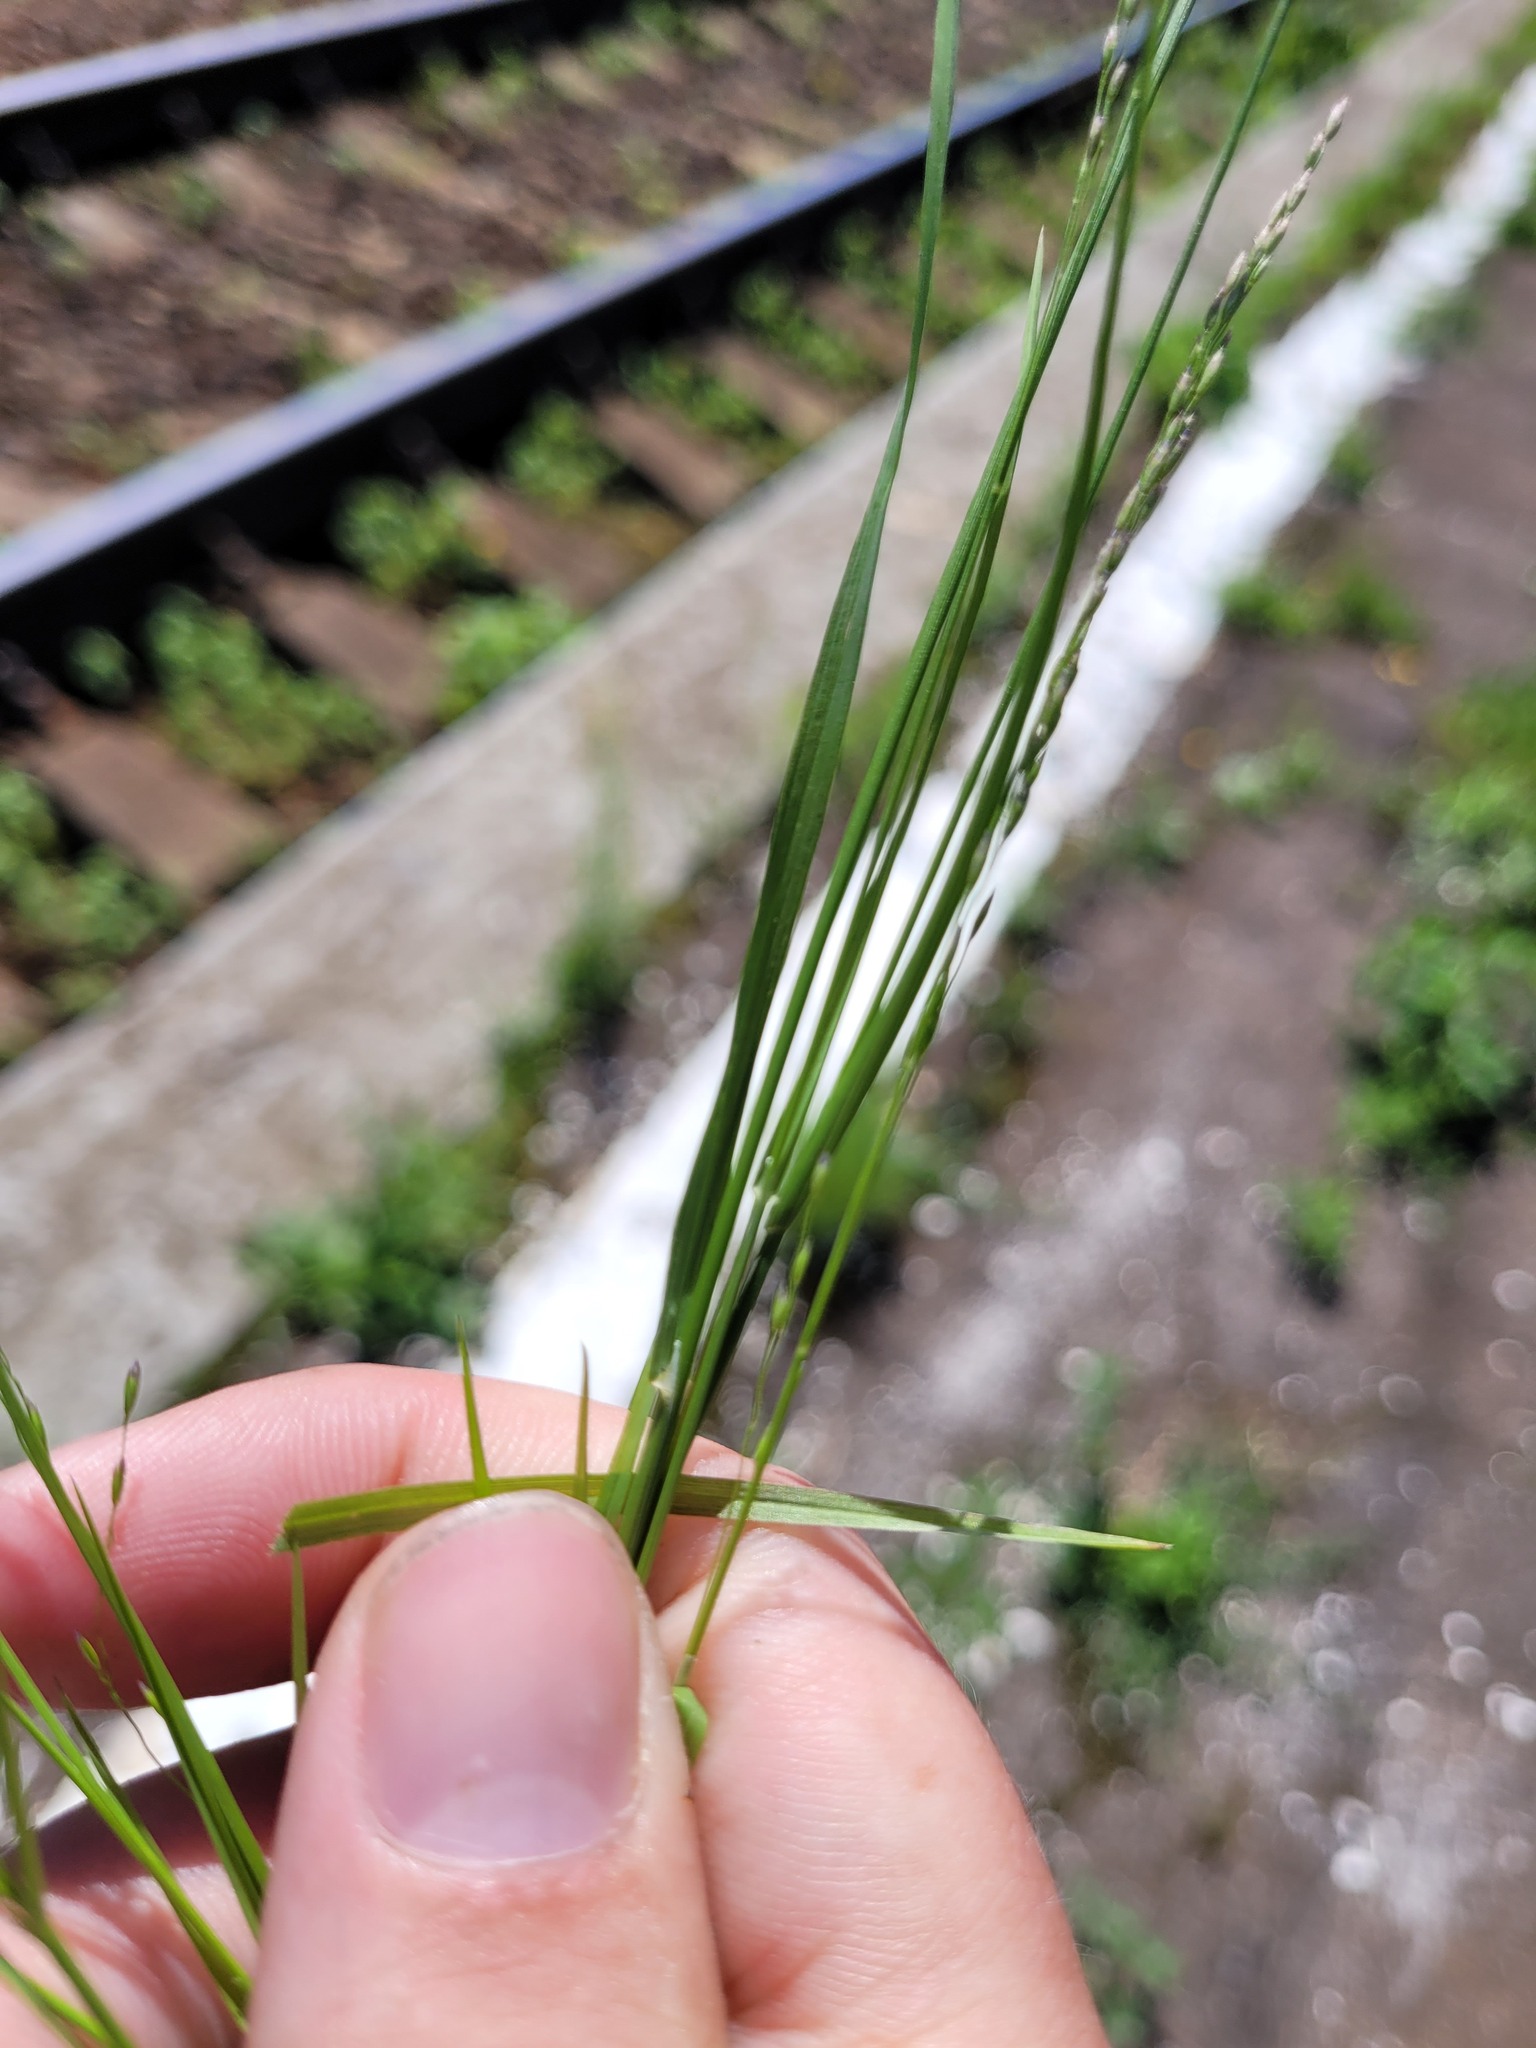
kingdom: Plantae
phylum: Tracheophyta
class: Liliopsida
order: Poales
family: Poaceae
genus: Poa
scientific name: Poa palustris
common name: Swamp meadow-grass
